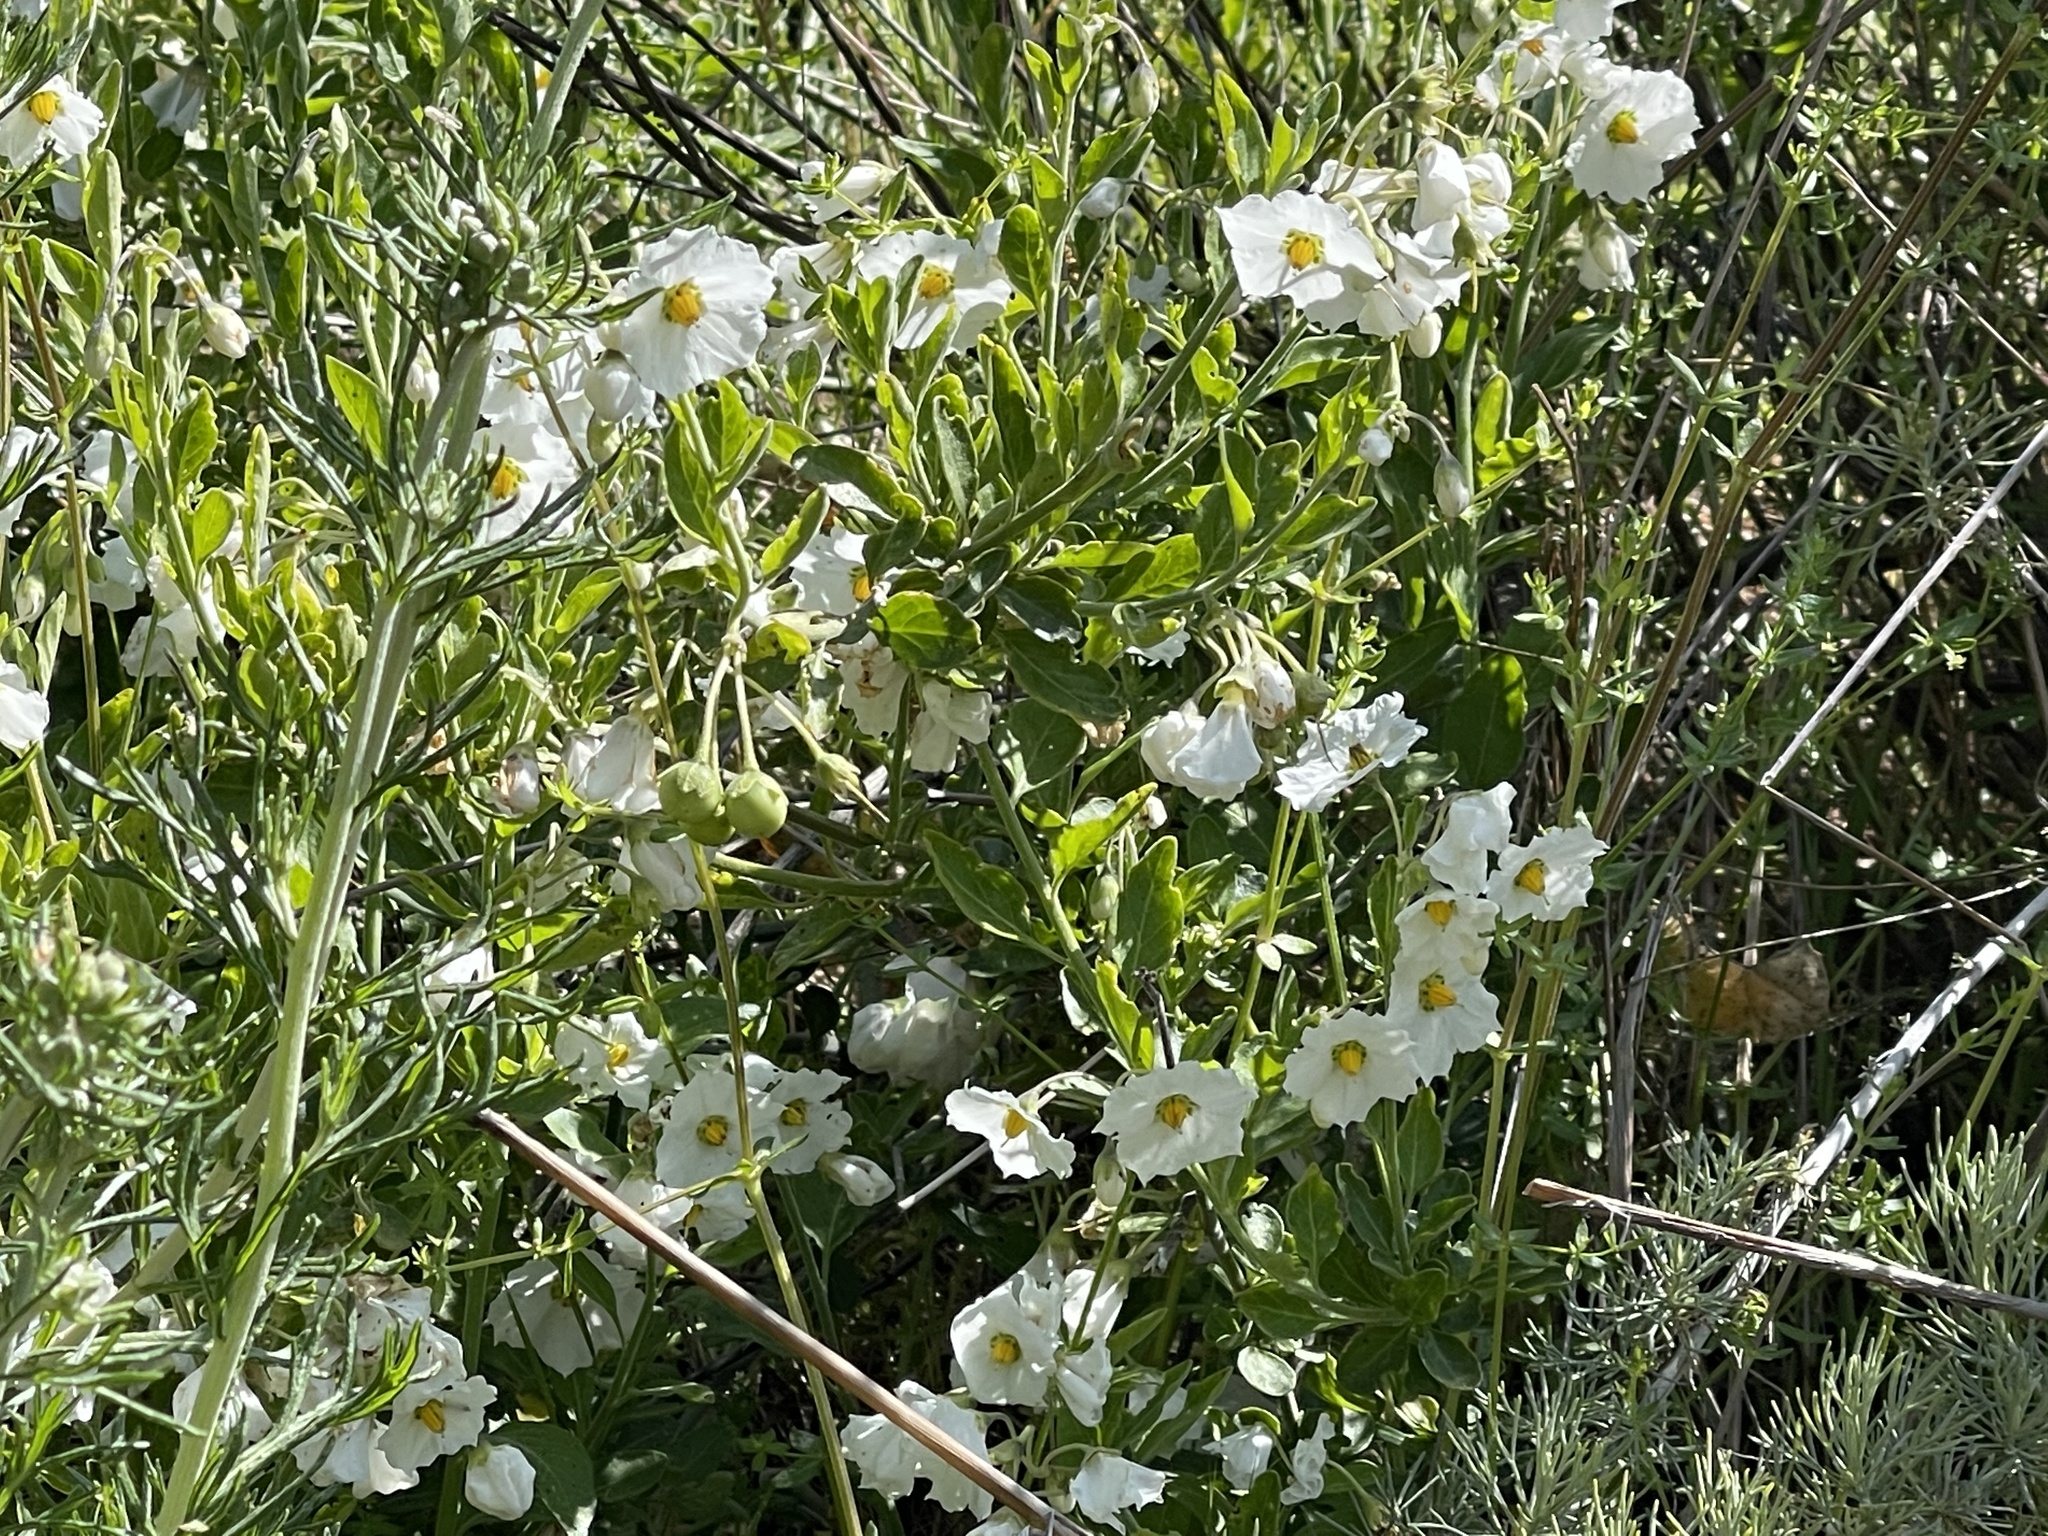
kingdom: Plantae
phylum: Tracheophyta
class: Magnoliopsida
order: Solanales
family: Solanaceae
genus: Solanum
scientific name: Solanum umbelliferum
